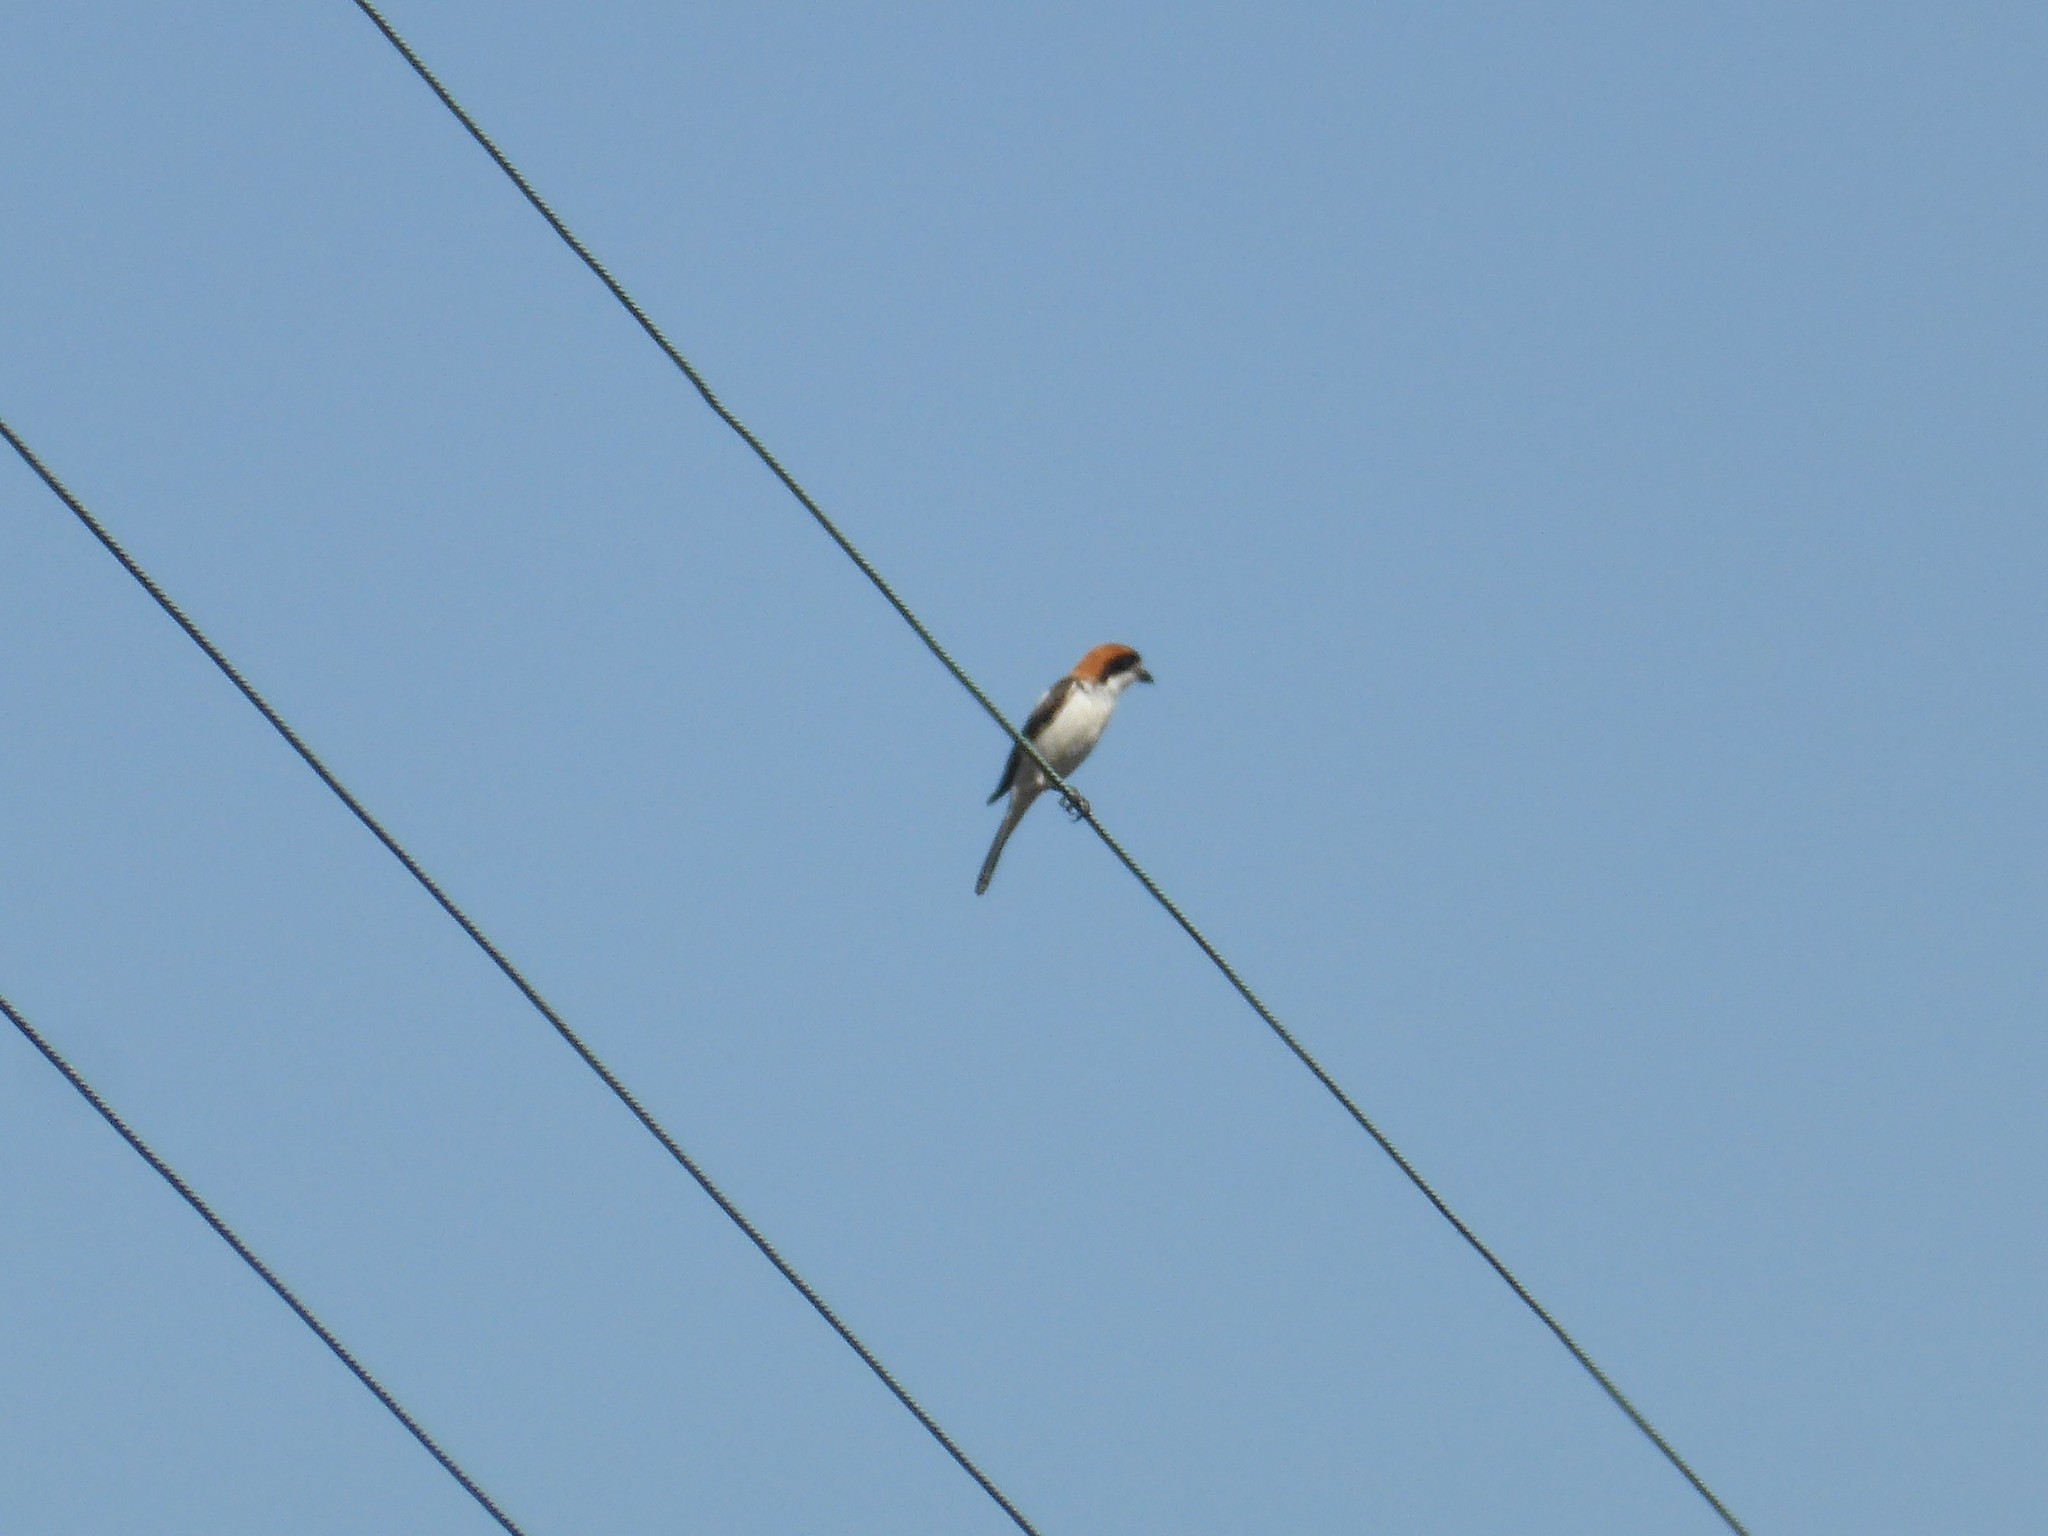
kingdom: Animalia
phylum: Chordata
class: Aves
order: Passeriformes
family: Laniidae
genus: Lanius
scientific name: Lanius senator
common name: Woodchat shrike
